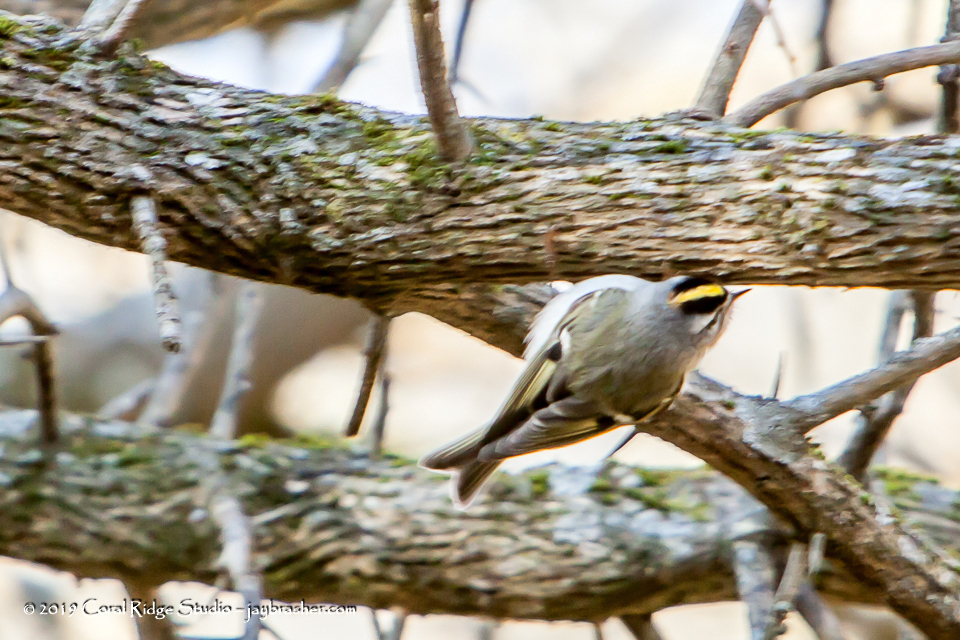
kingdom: Animalia
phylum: Chordata
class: Aves
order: Passeriformes
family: Regulidae
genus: Regulus
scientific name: Regulus satrapa
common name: Golden-crowned kinglet
